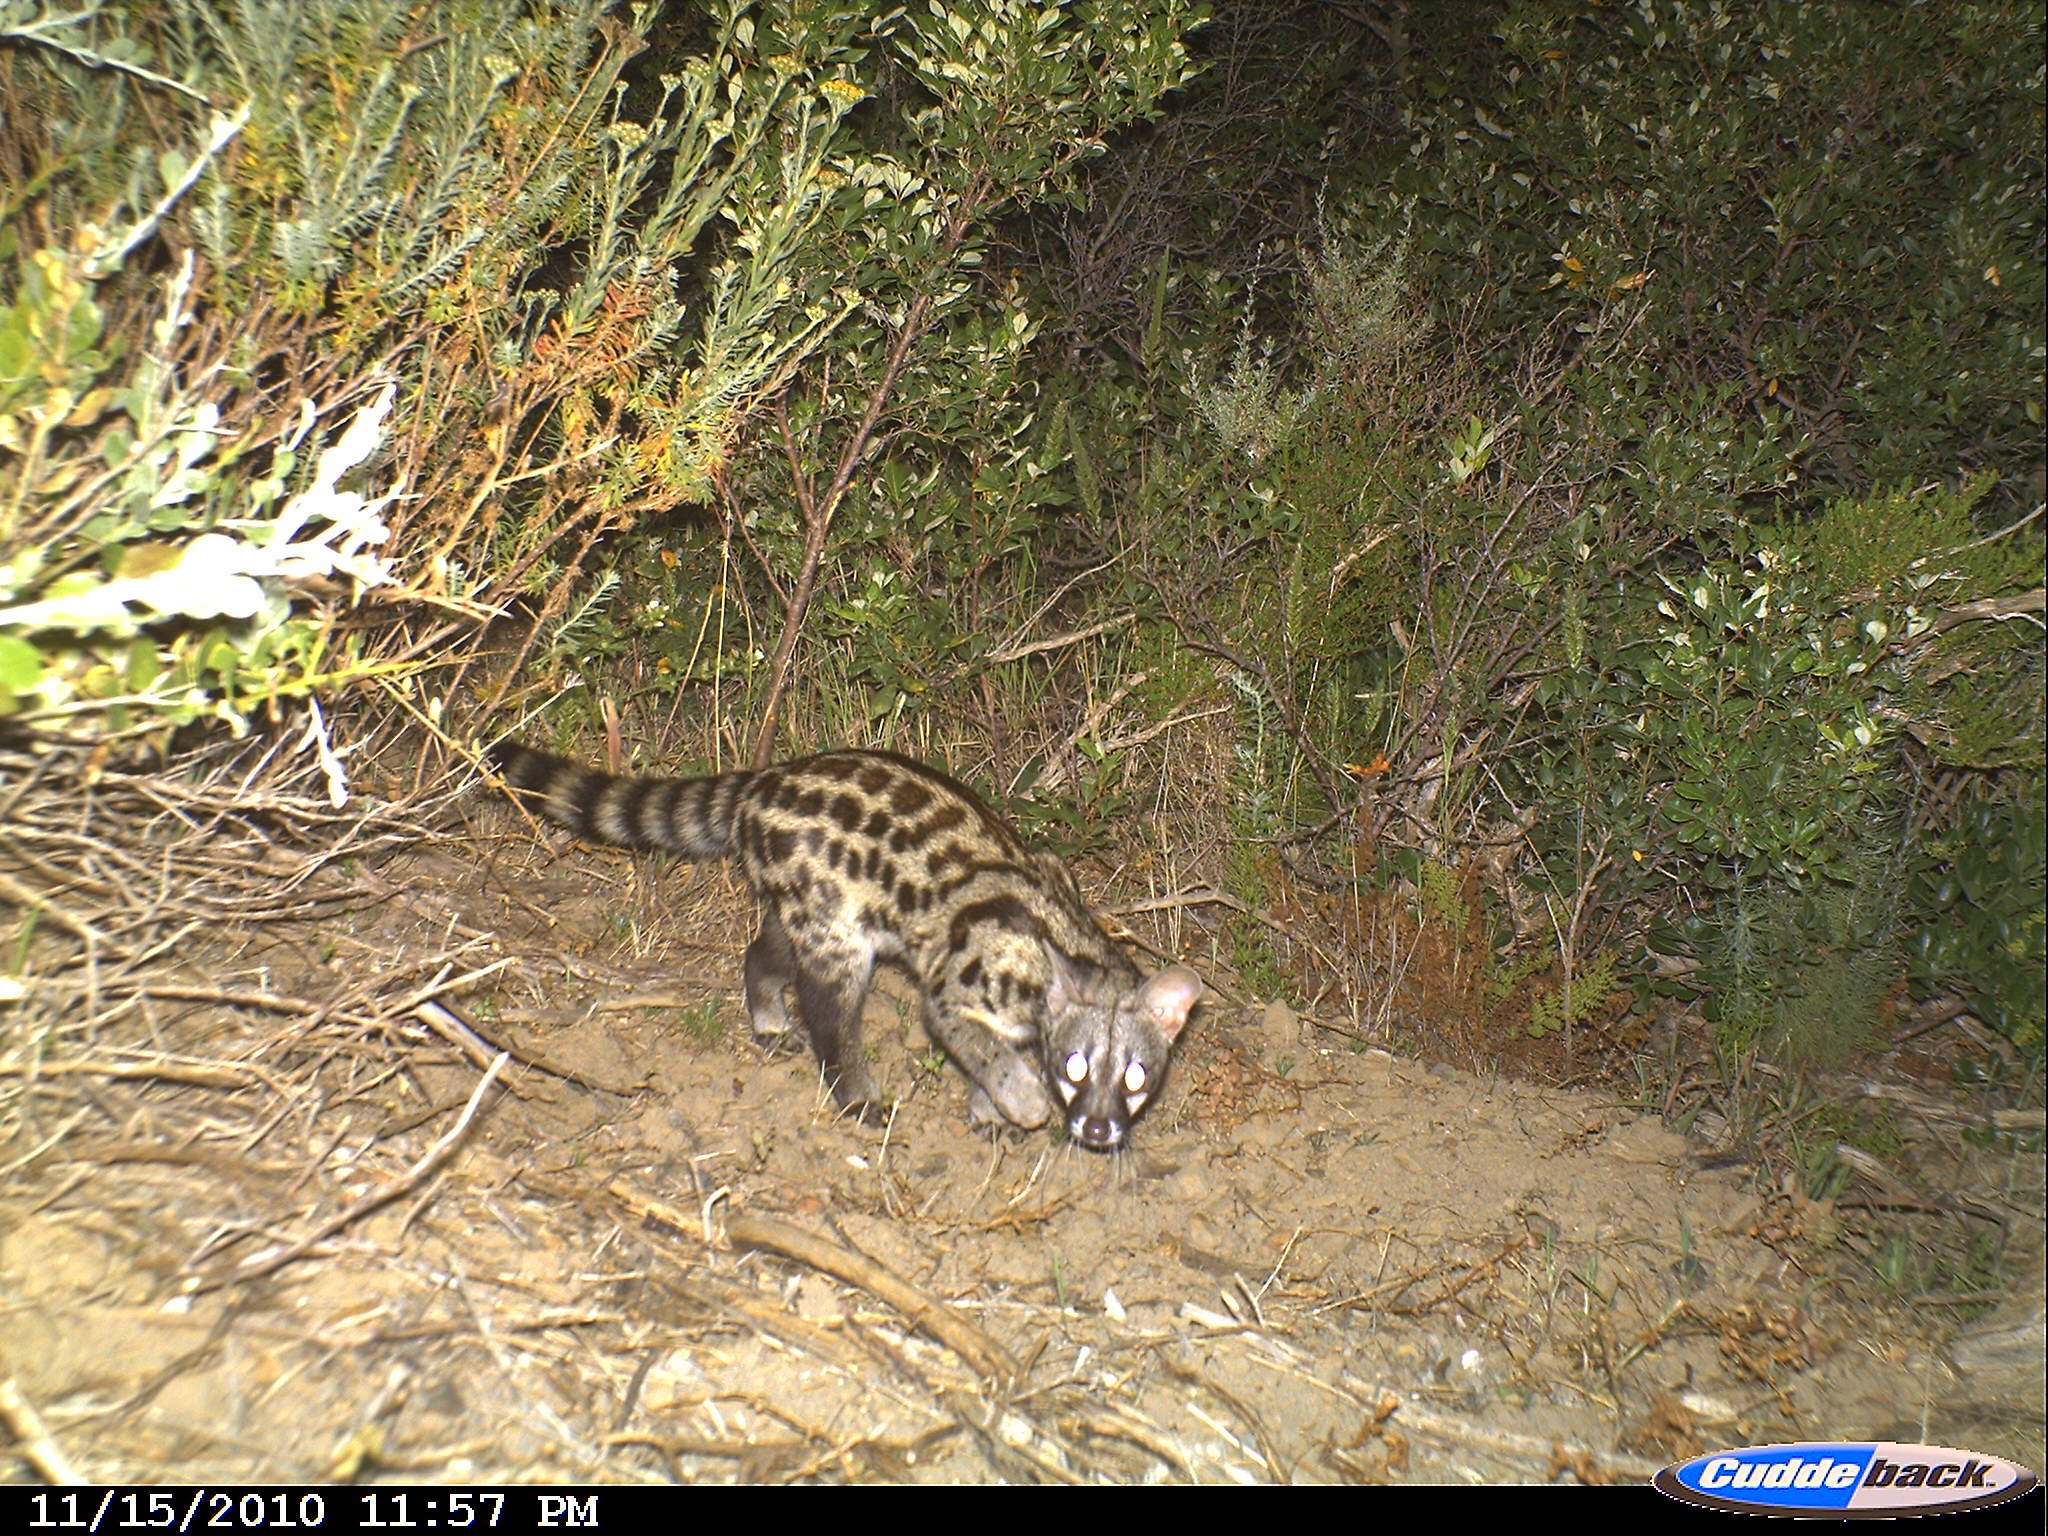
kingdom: Animalia
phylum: Chordata
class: Mammalia
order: Carnivora
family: Viverridae
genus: Genetta
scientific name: Genetta tigrina
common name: Cape genet
